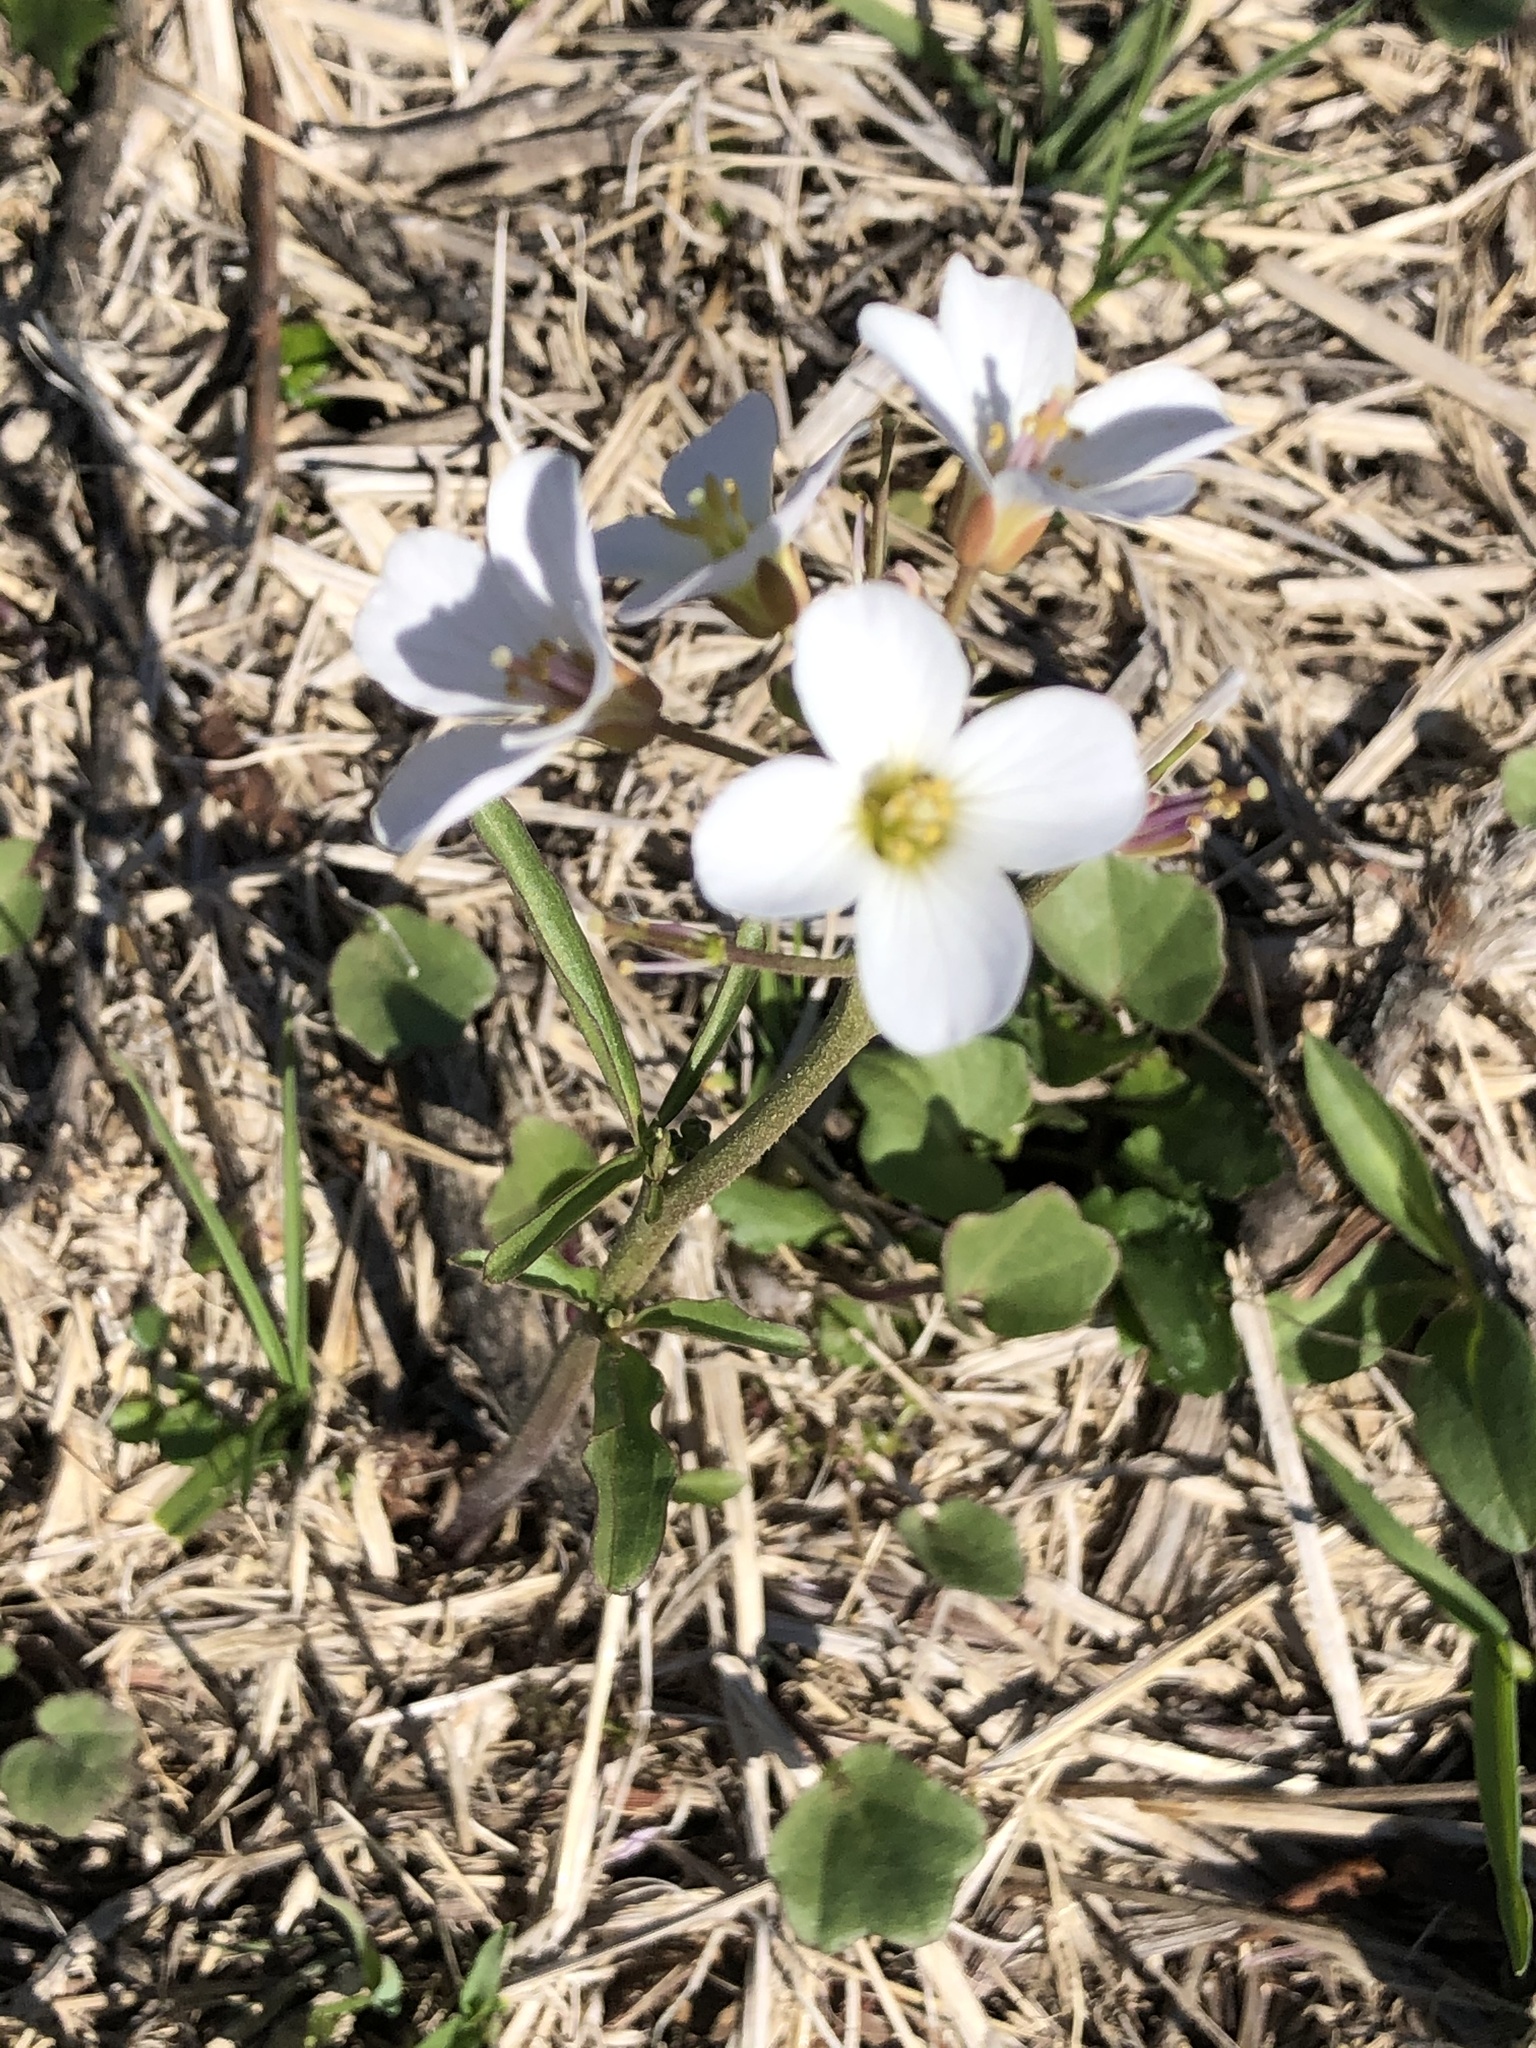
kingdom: Plantae
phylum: Tracheophyta
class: Magnoliopsida
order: Brassicales
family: Brassicaceae
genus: Cardamine
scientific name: Cardamine californica
